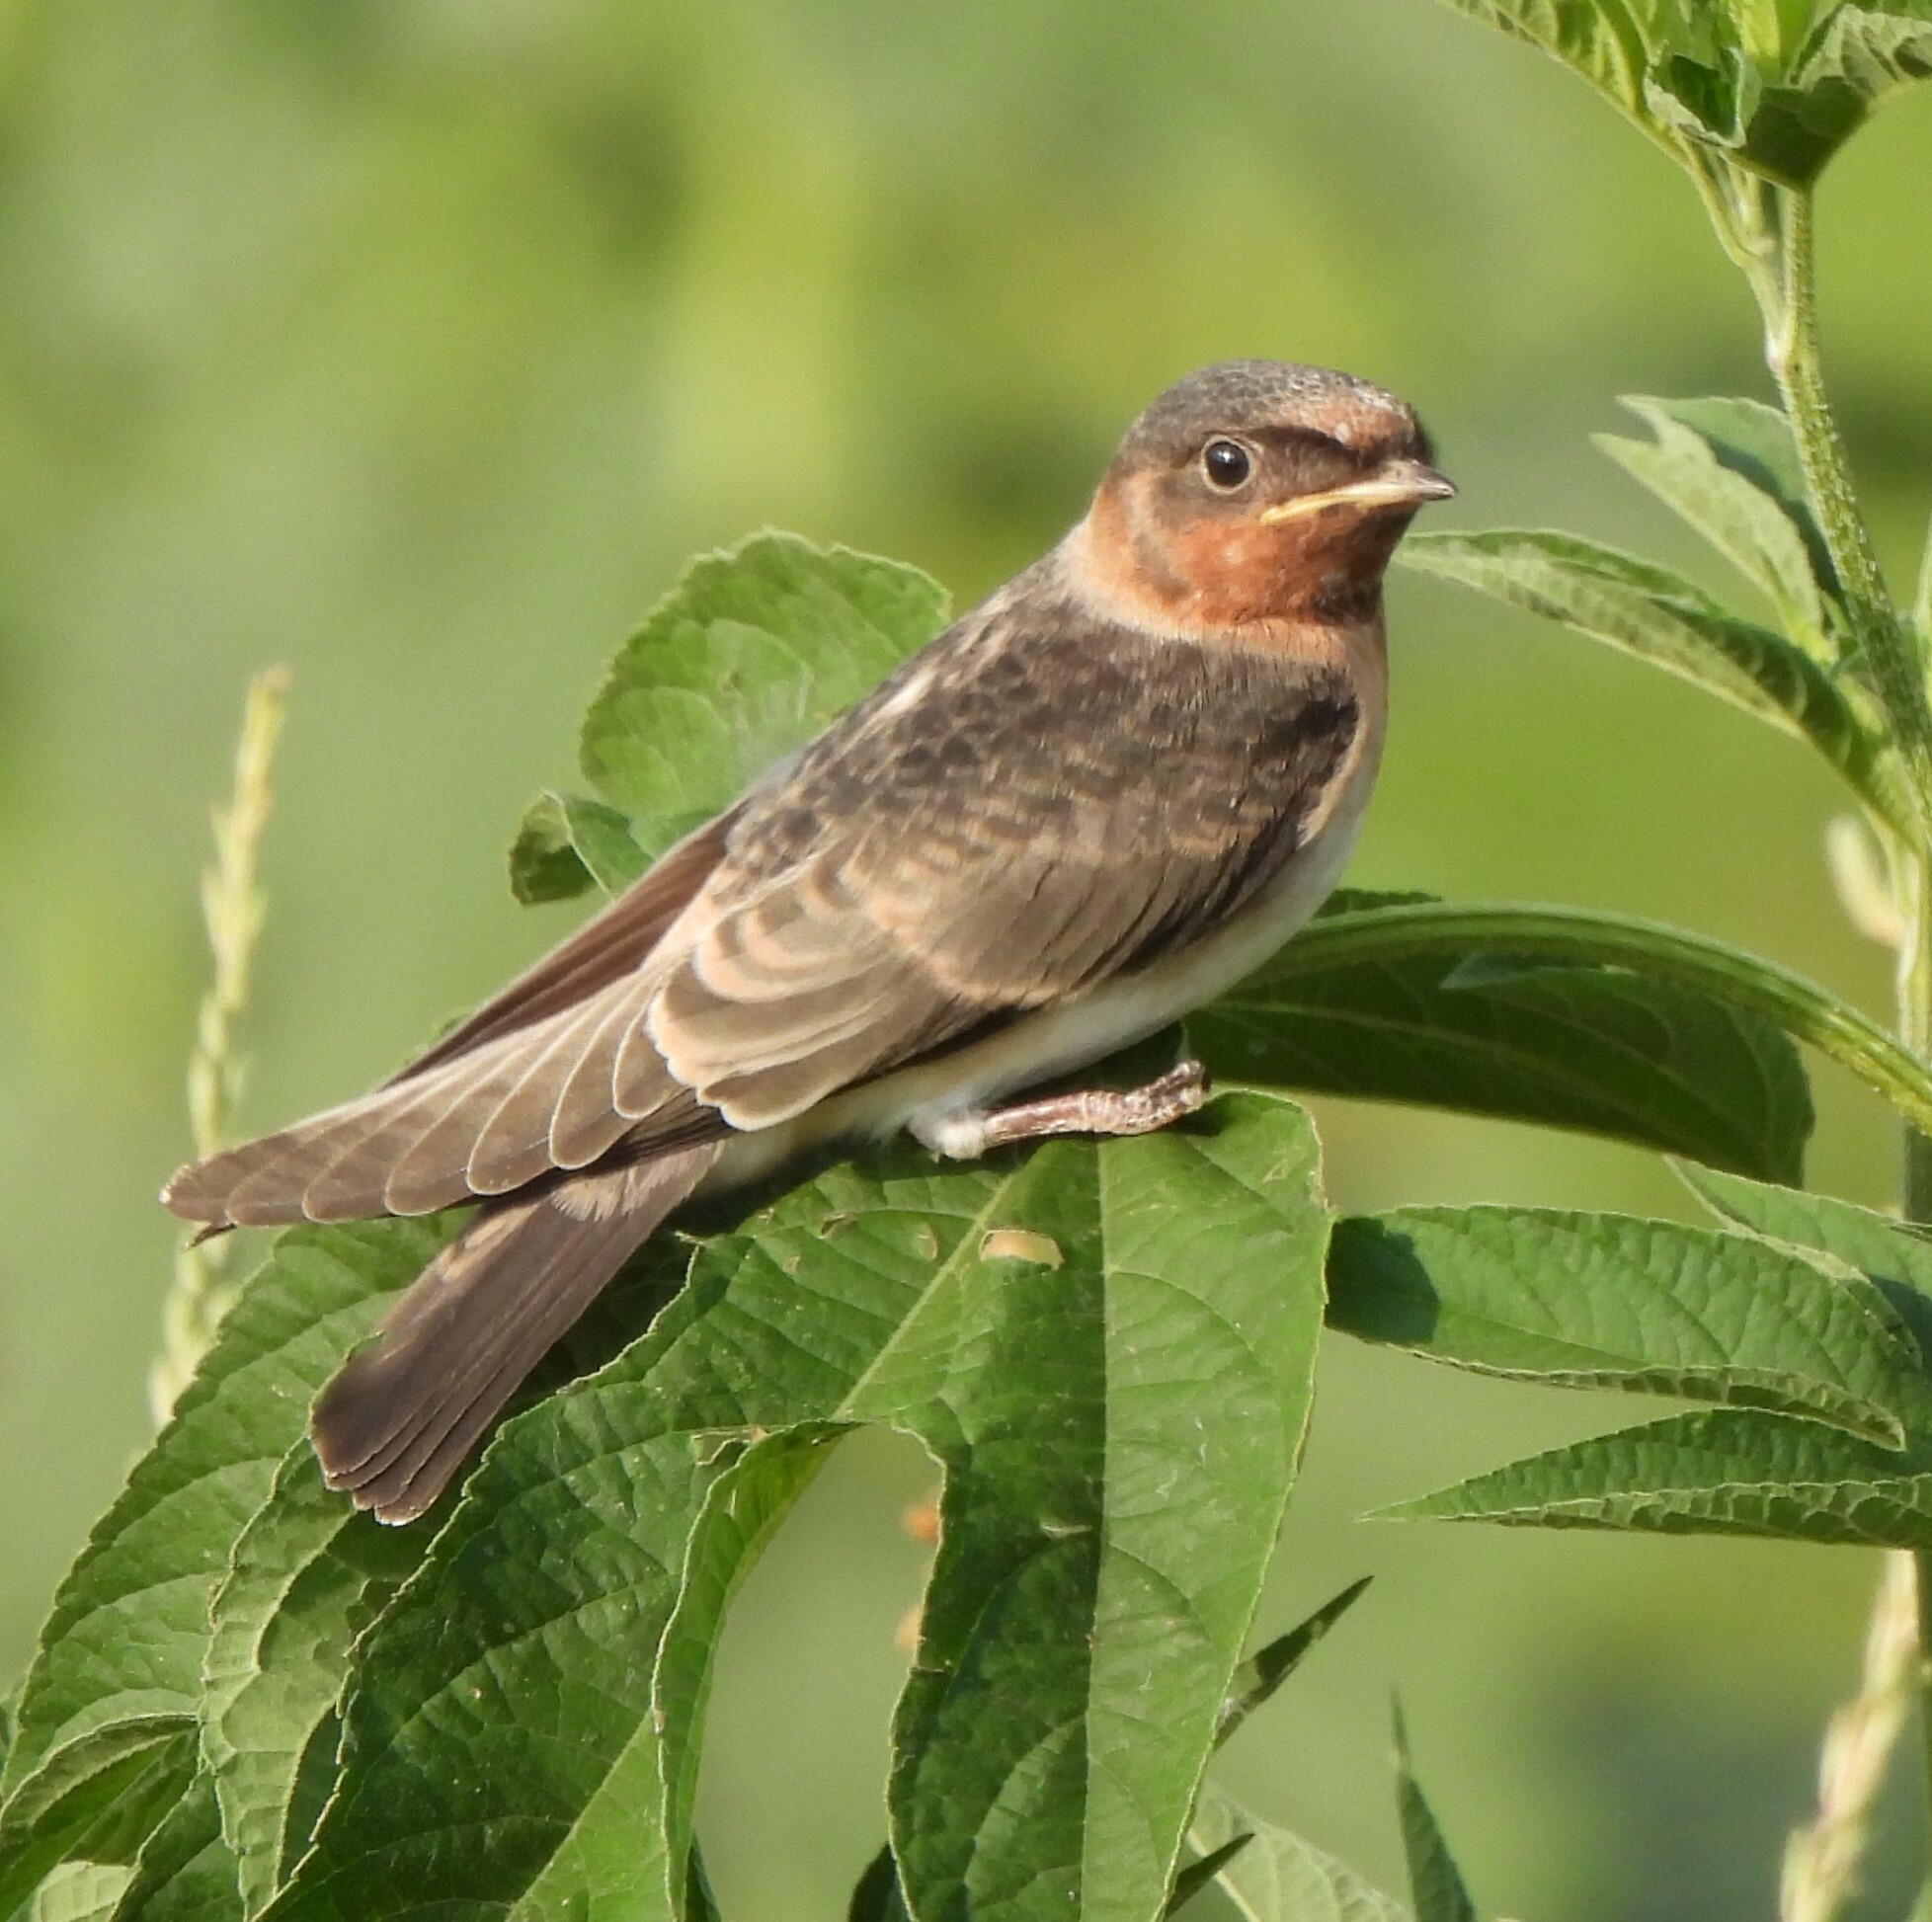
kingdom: Animalia
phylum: Chordata
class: Aves
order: Passeriformes
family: Hirundinidae
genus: Petrochelidon
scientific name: Petrochelidon pyrrhonota
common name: American cliff swallow
